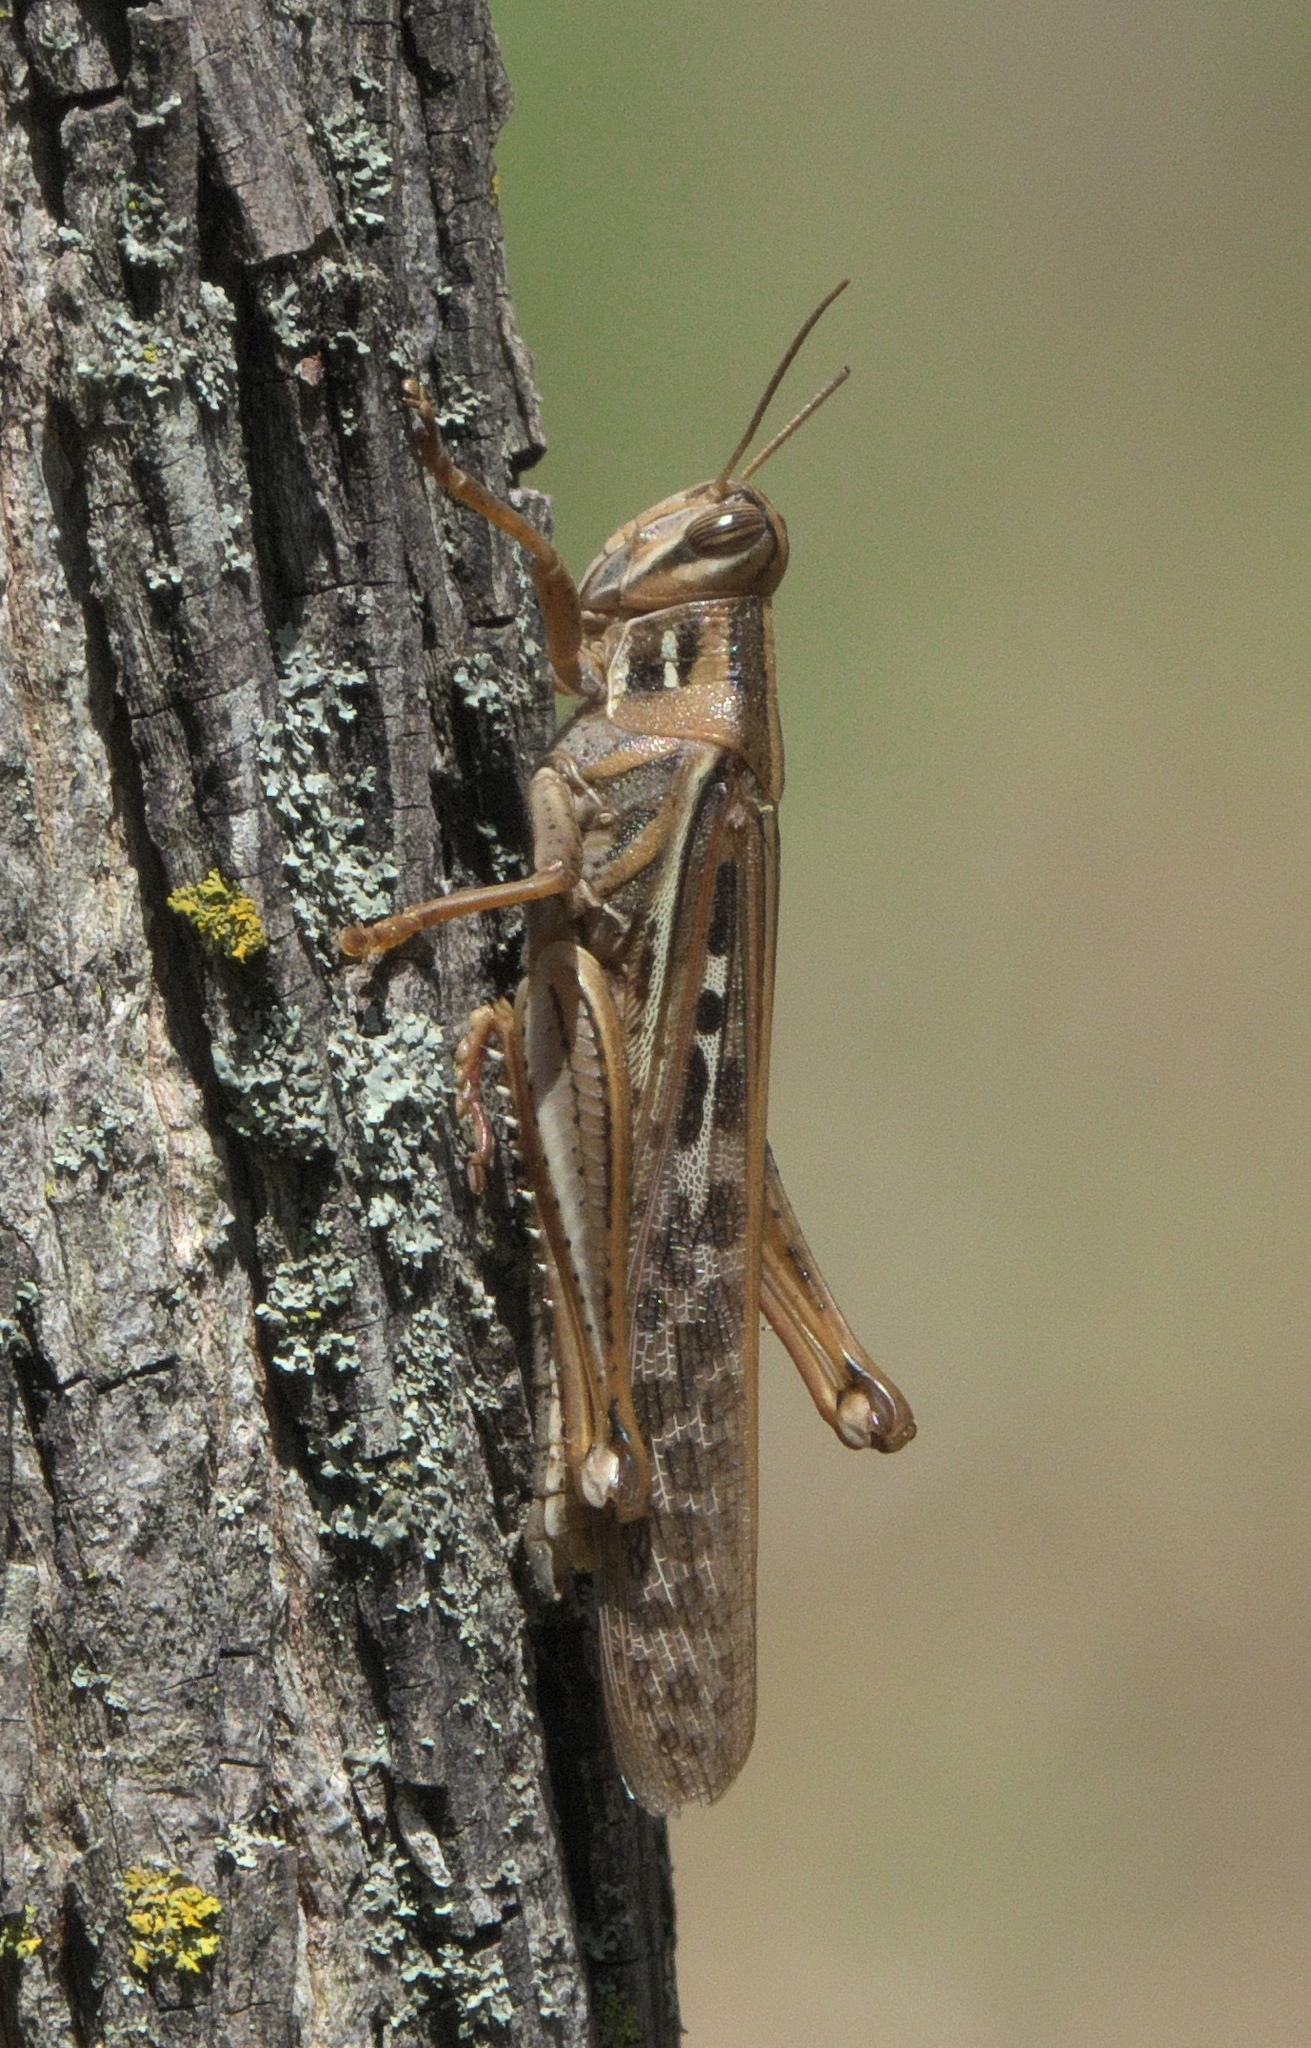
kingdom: Animalia
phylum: Arthropoda
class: Insecta
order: Orthoptera
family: Acrididae
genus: Schistocerca
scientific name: Schistocerca americana
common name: American bird locust
